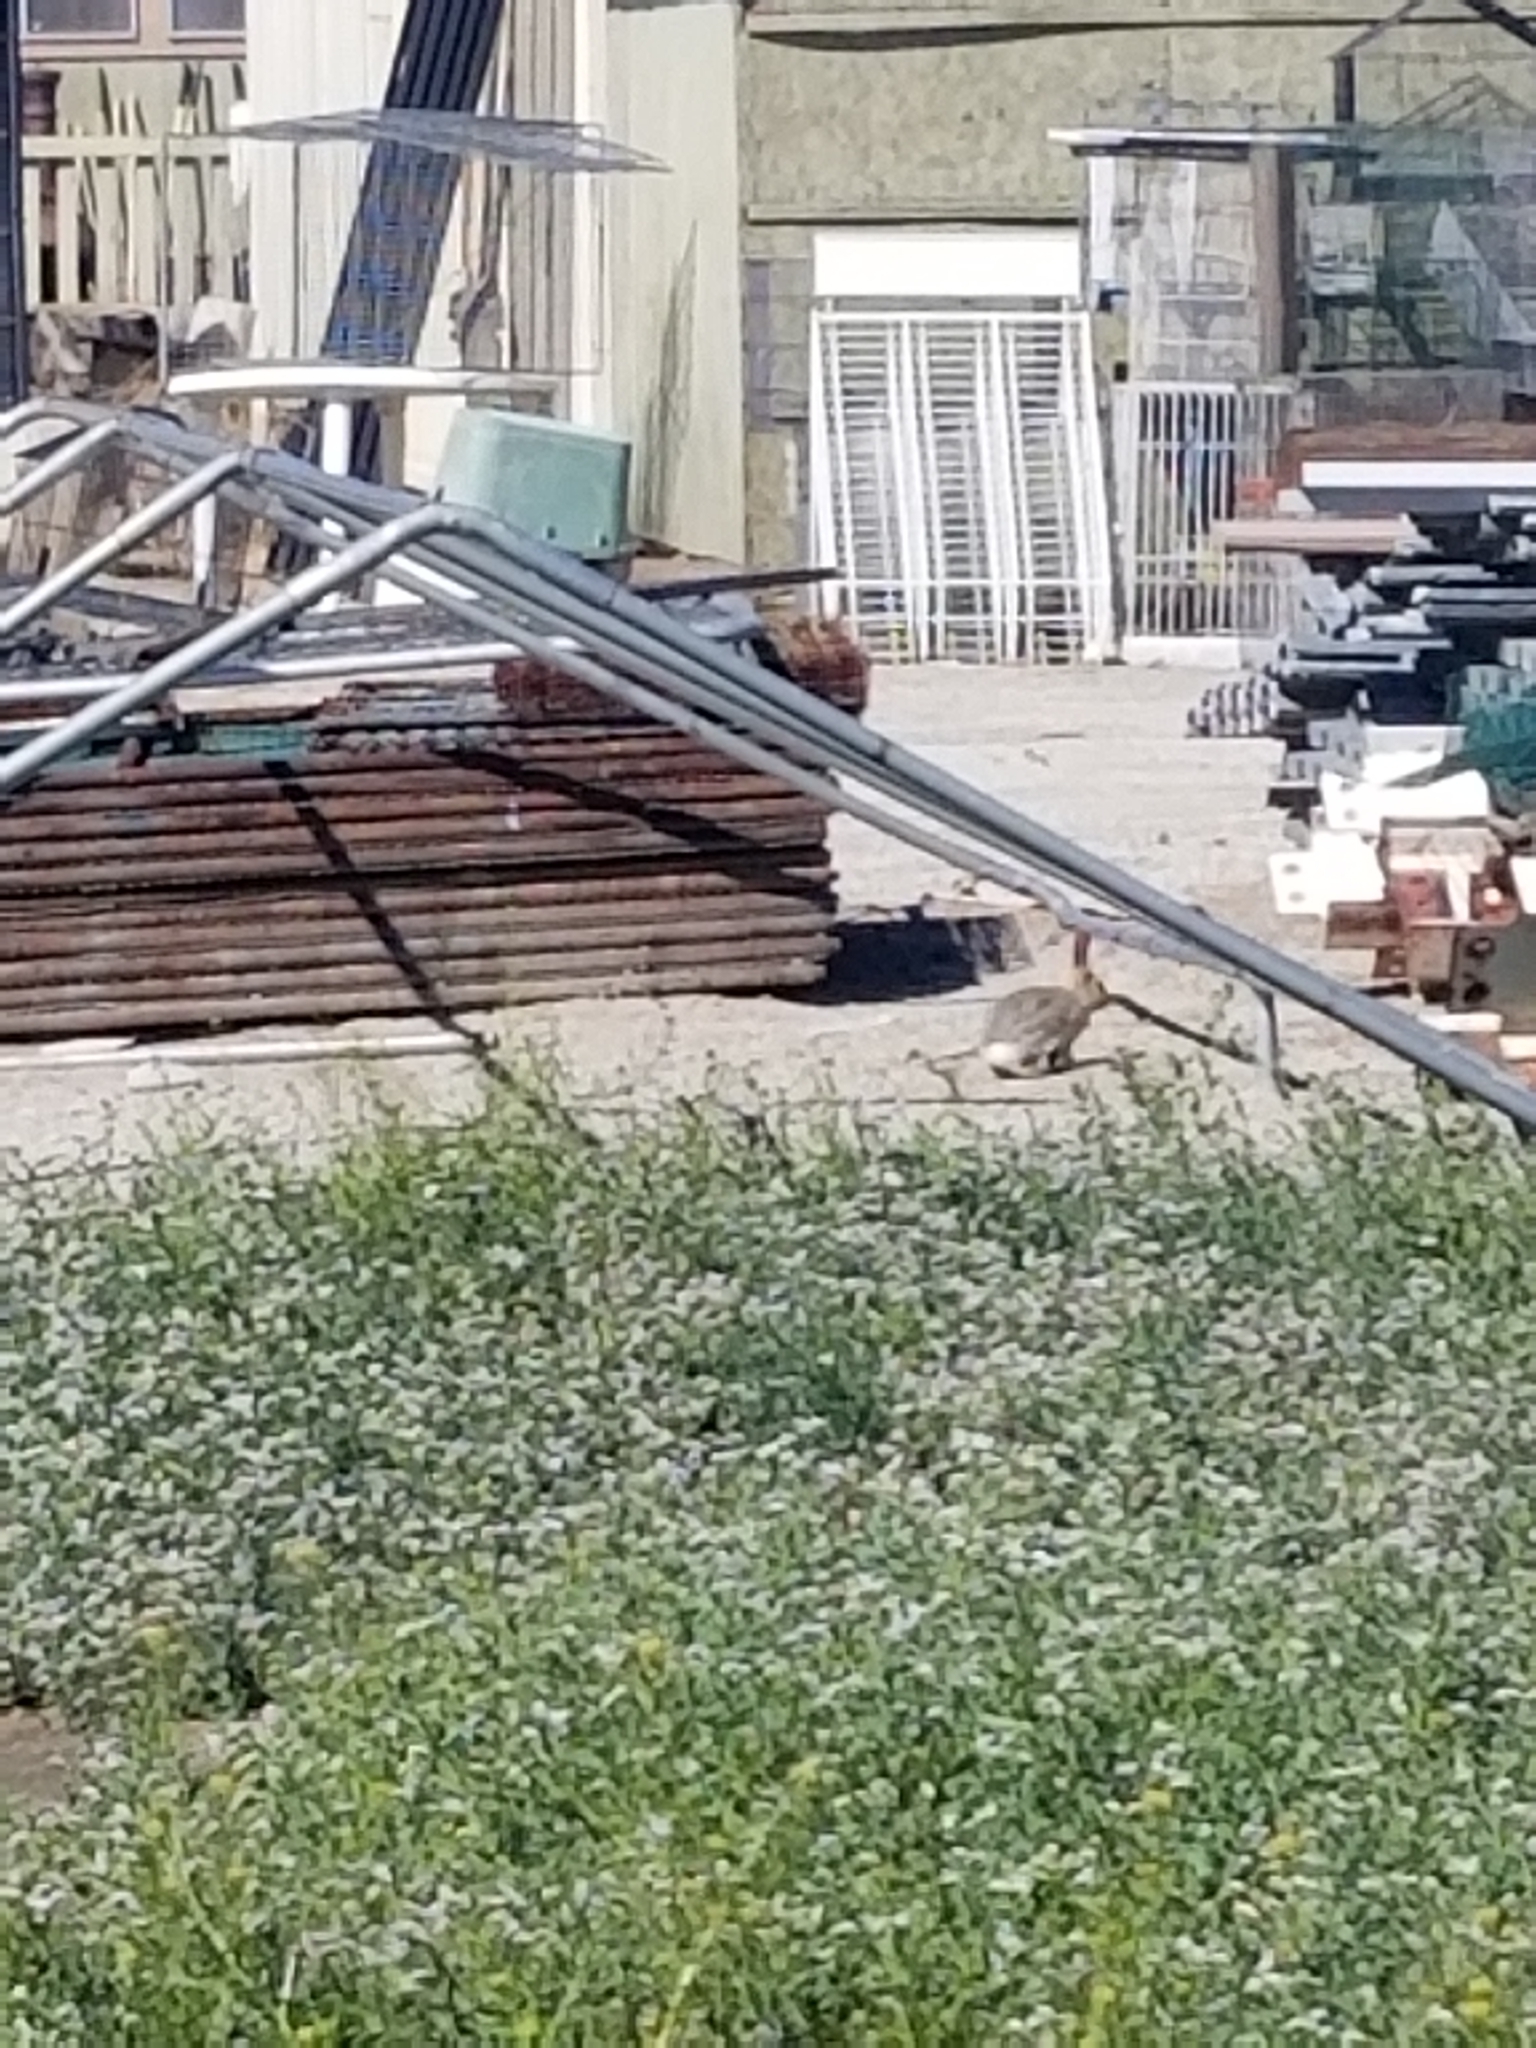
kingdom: Animalia
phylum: Chordata
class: Mammalia
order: Lagomorpha
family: Leporidae
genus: Sylvilagus
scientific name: Sylvilagus audubonii
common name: Desert cottontail
